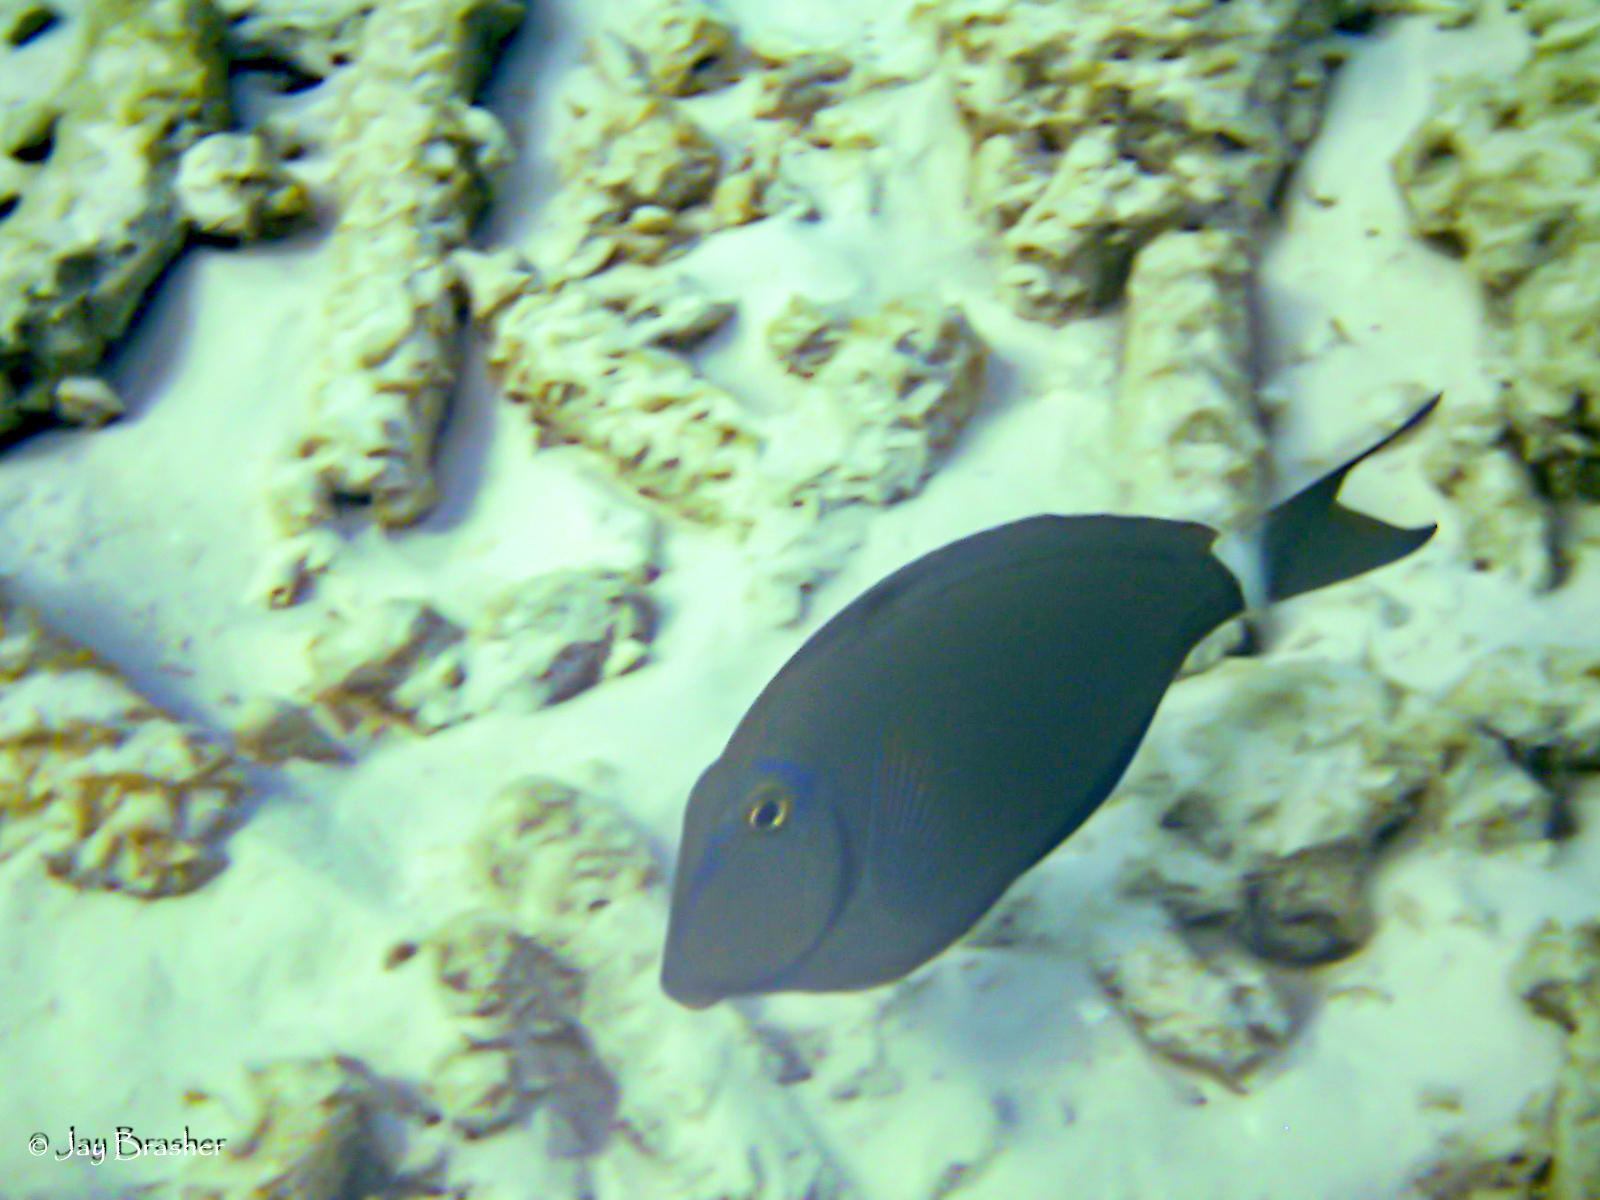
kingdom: Animalia
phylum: Chordata
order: Perciformes
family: Acanthuridae
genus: Acanthurus
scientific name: Acanthurus bahianus
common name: Ocean surgeon
